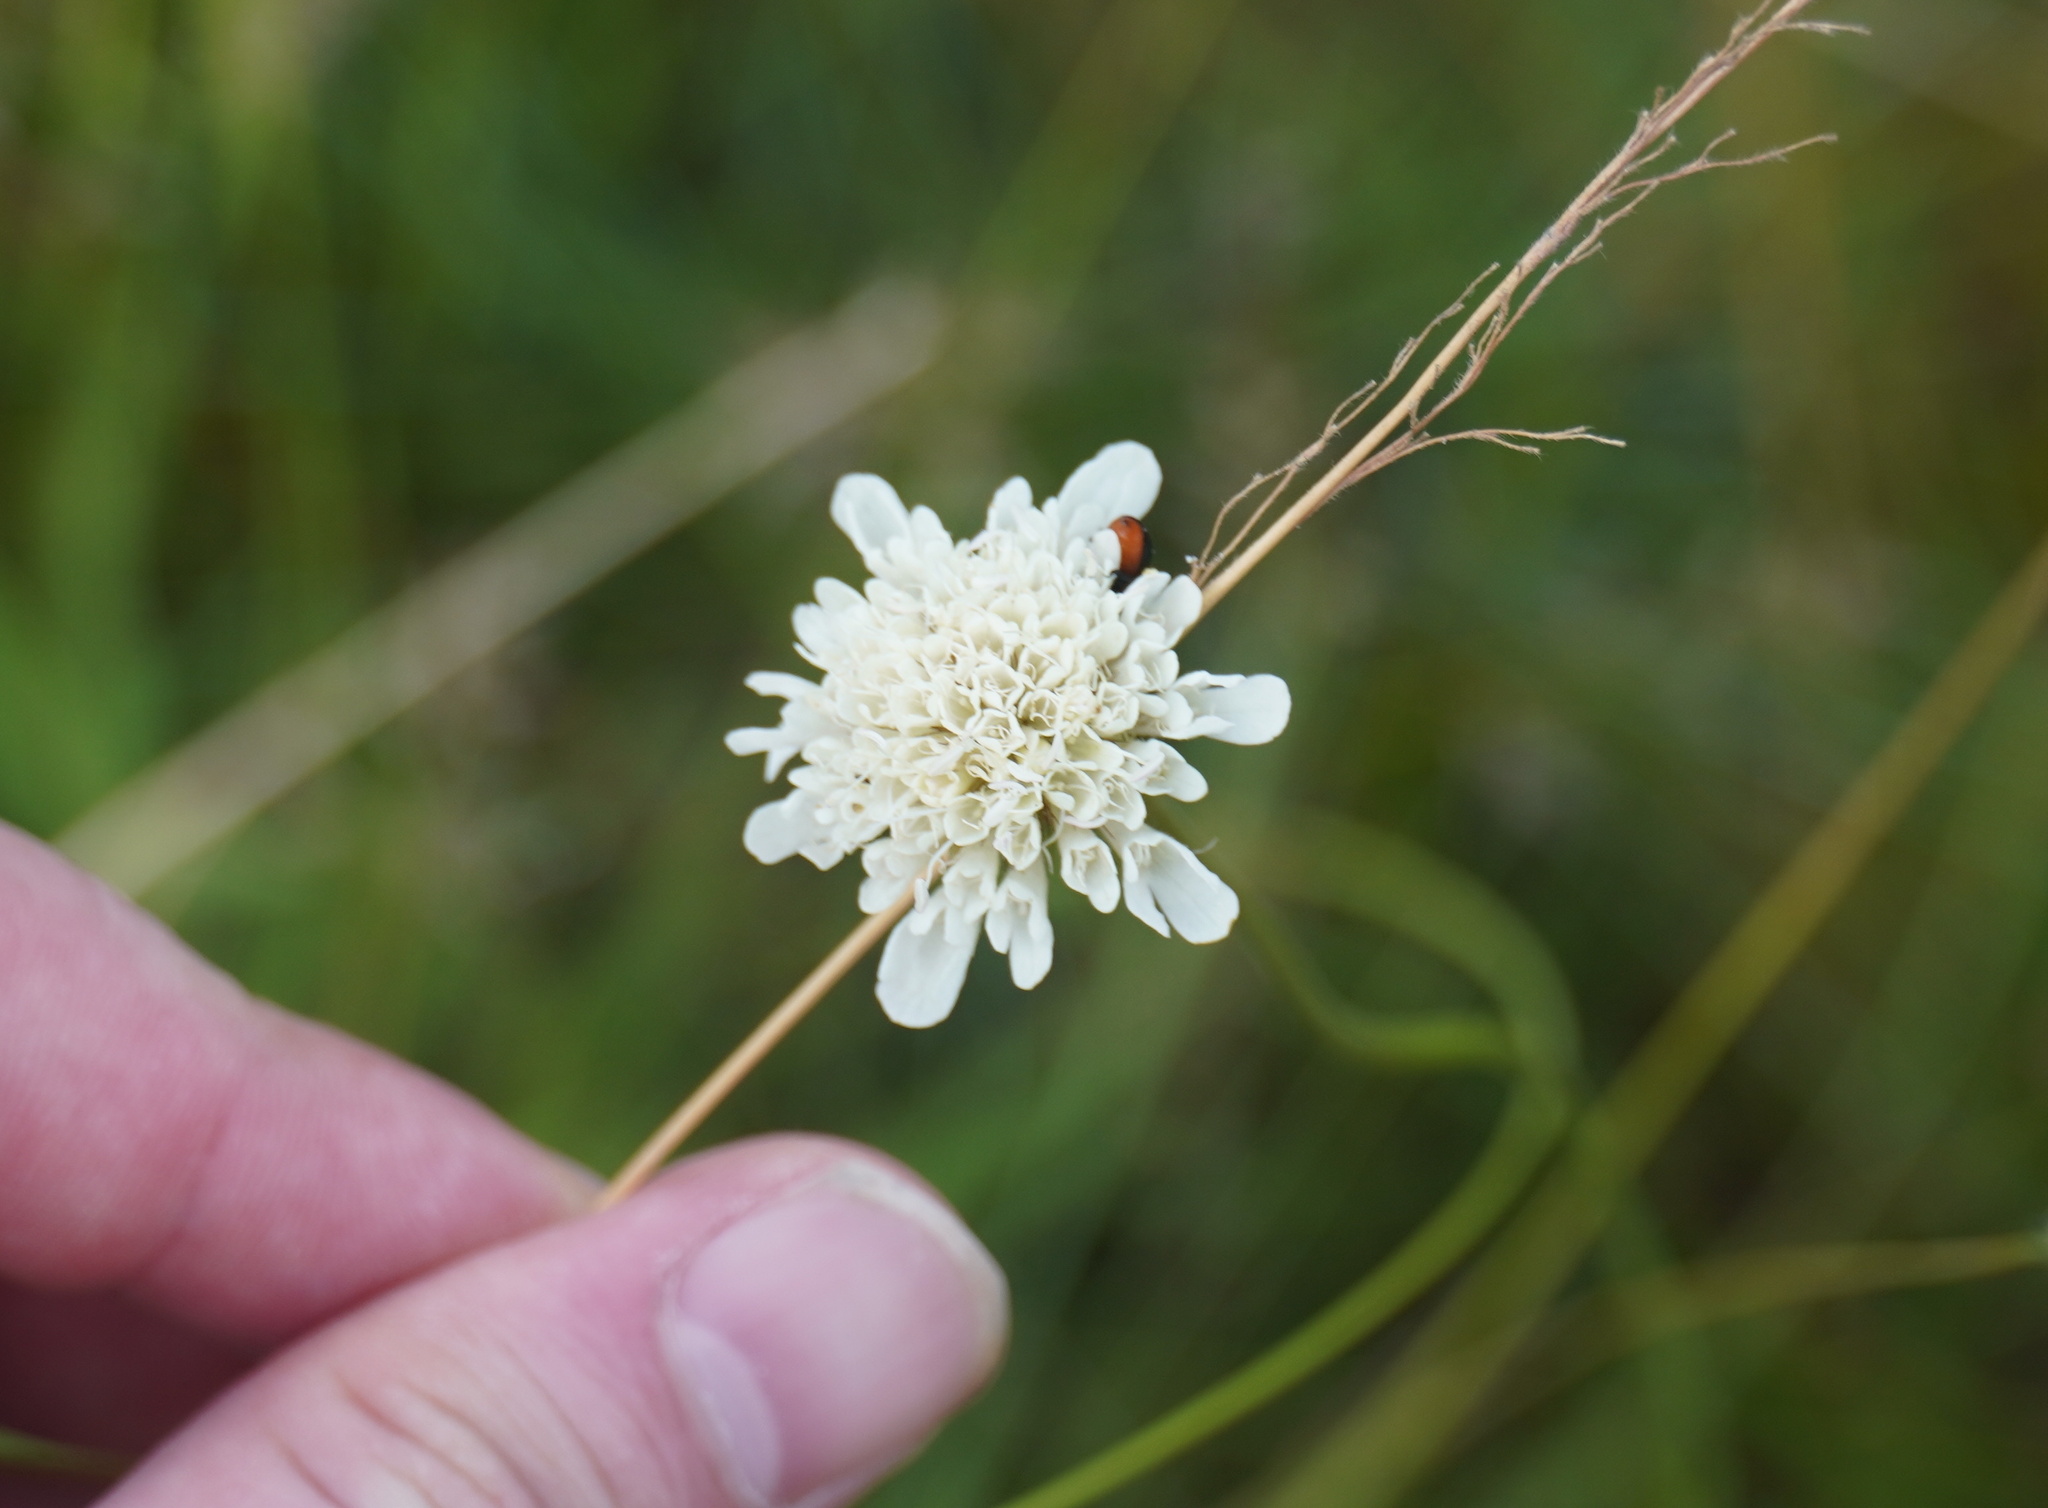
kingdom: Plantae
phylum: Tracheophyta
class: Magnoliopsida
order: Dipsacales
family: Caprifoliaceae
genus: Scabiosa
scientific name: Scabiosa columbaria
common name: Small scabious
